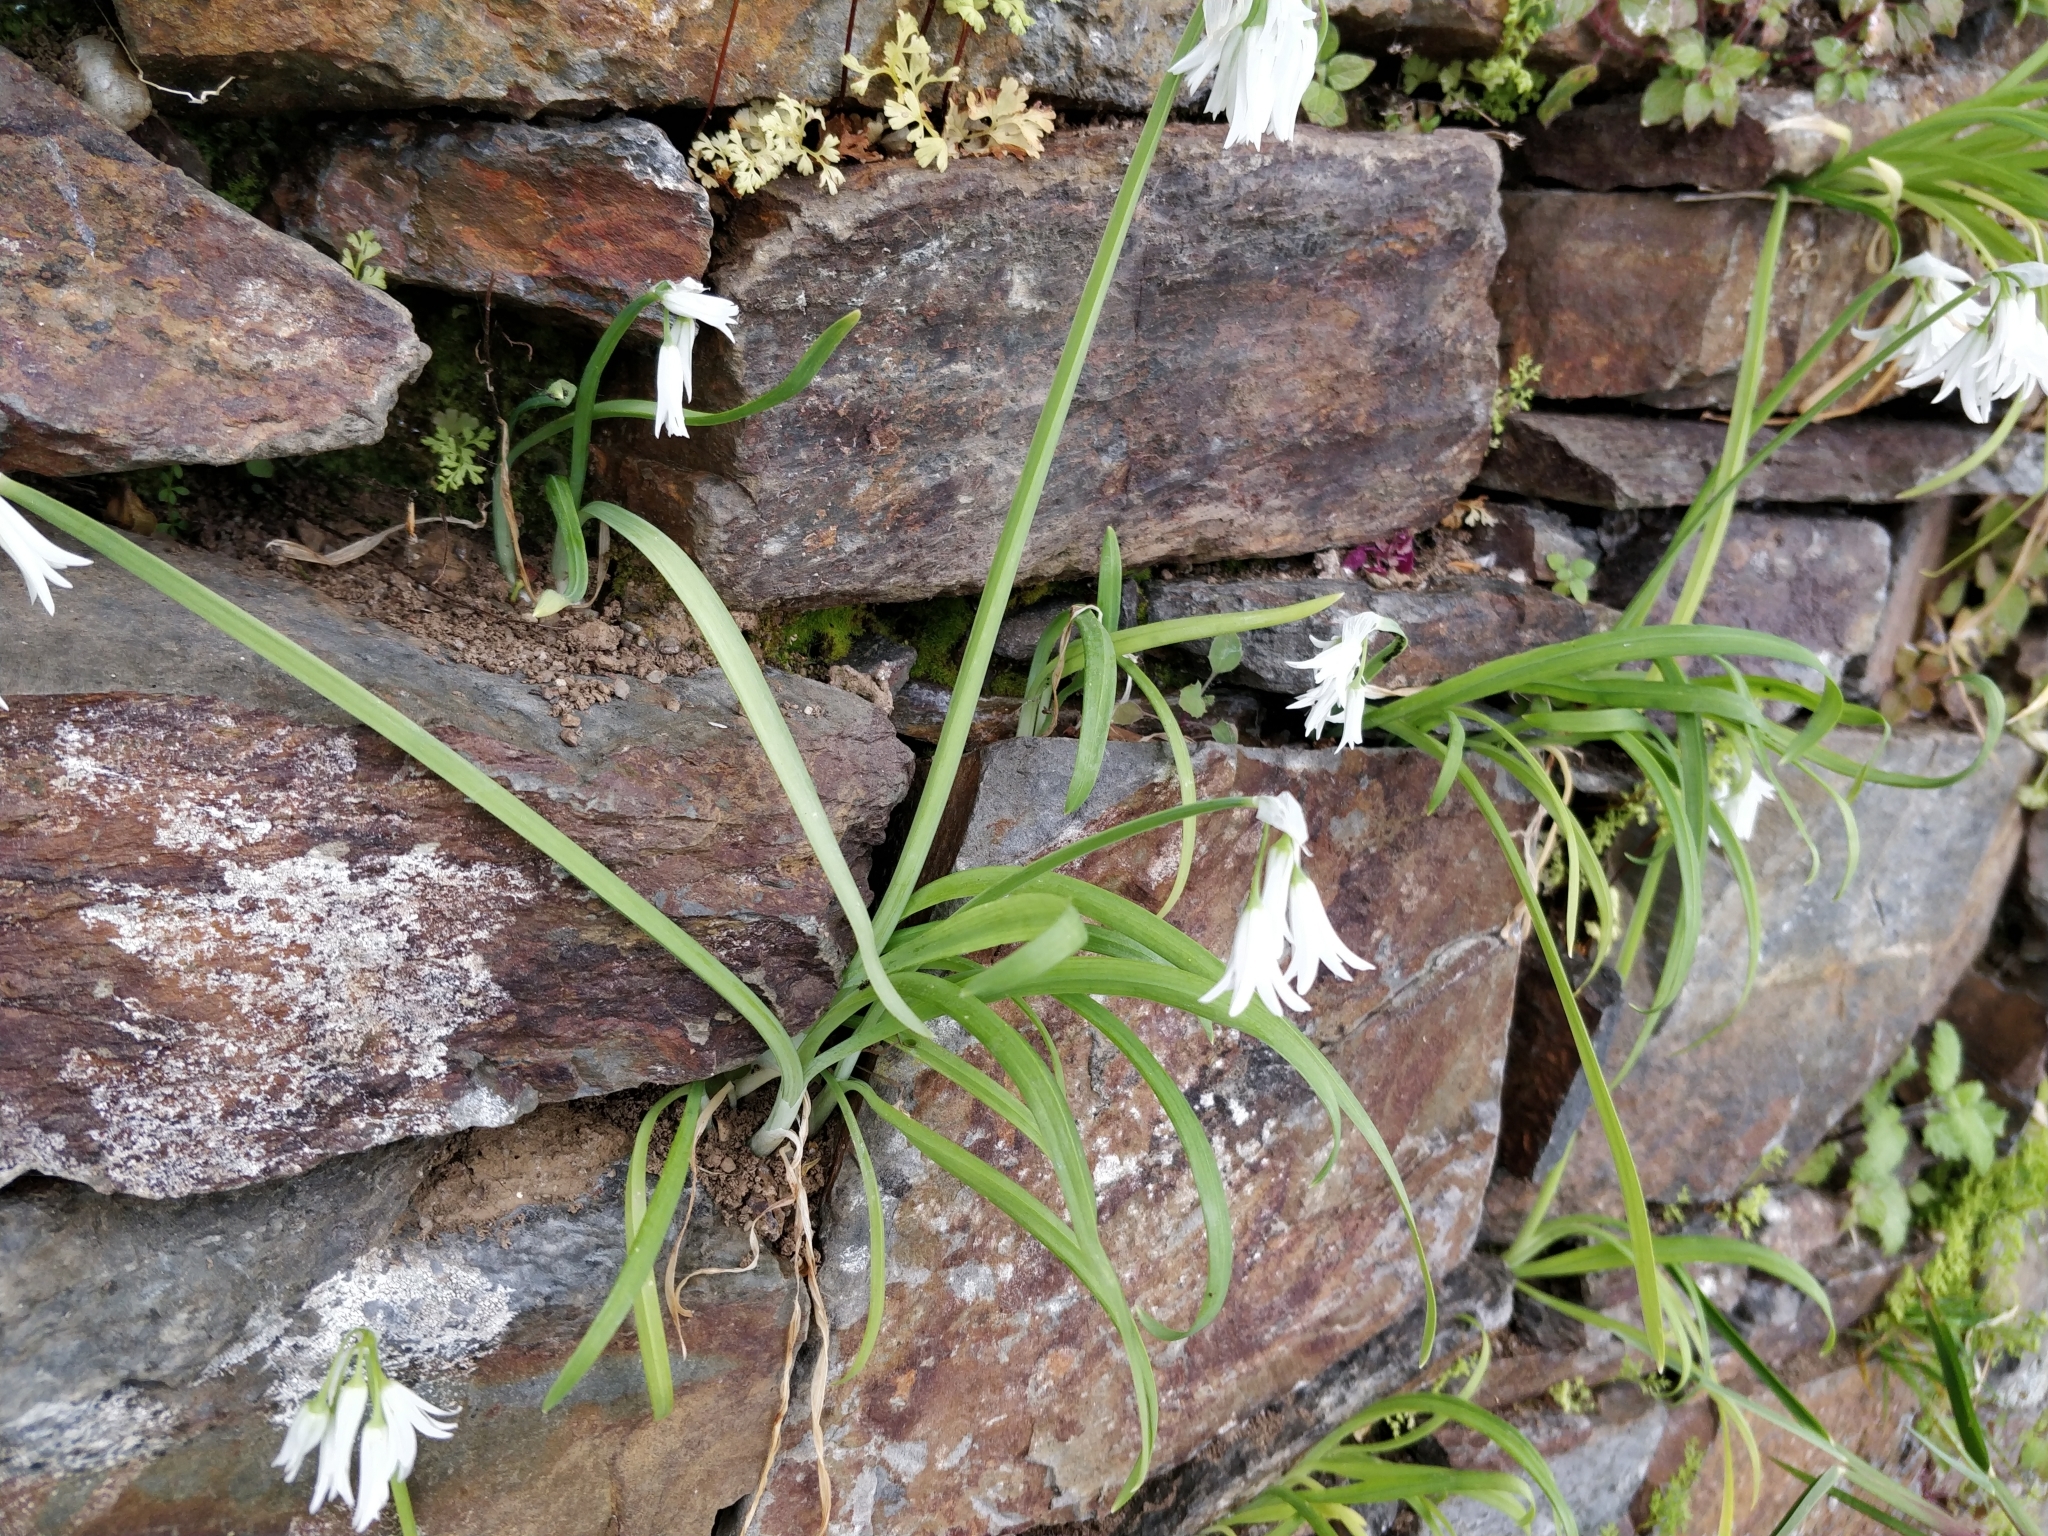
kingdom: Plantae
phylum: Tracheophyta
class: Liliopsida
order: Asparagales
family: Amaryllidaceae
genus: Allium
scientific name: Allium triquetrum
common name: Three-cornered garlic
